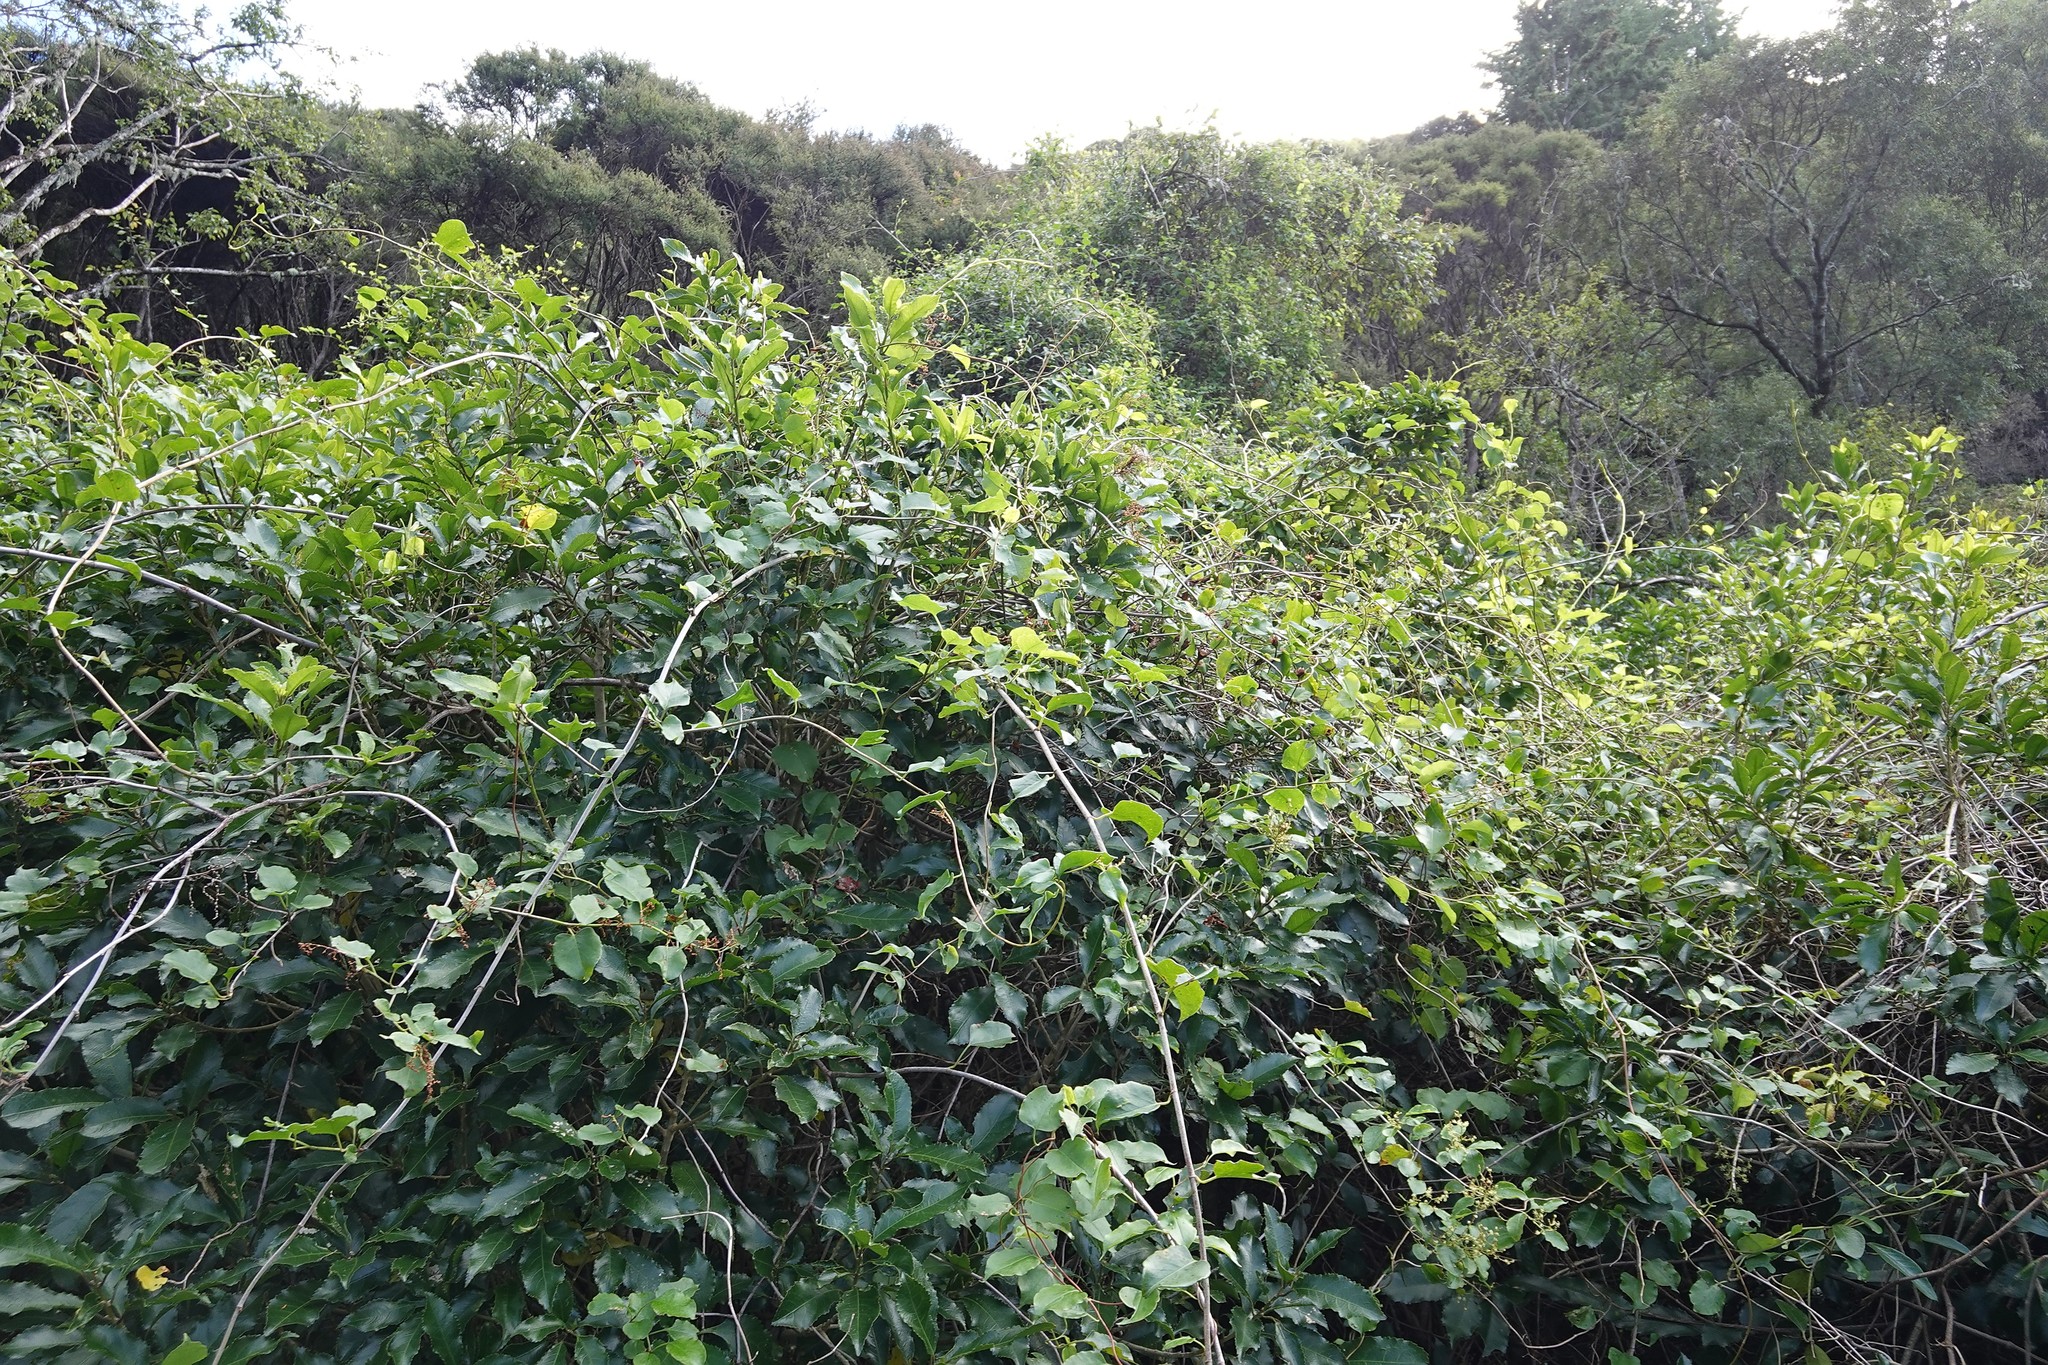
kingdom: Plantae
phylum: Tracheophyta
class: Magnoliopsida
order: Caryophyllales
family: Polygonaceae
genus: Muehlenbeckia
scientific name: Muehlenbeckia australis
